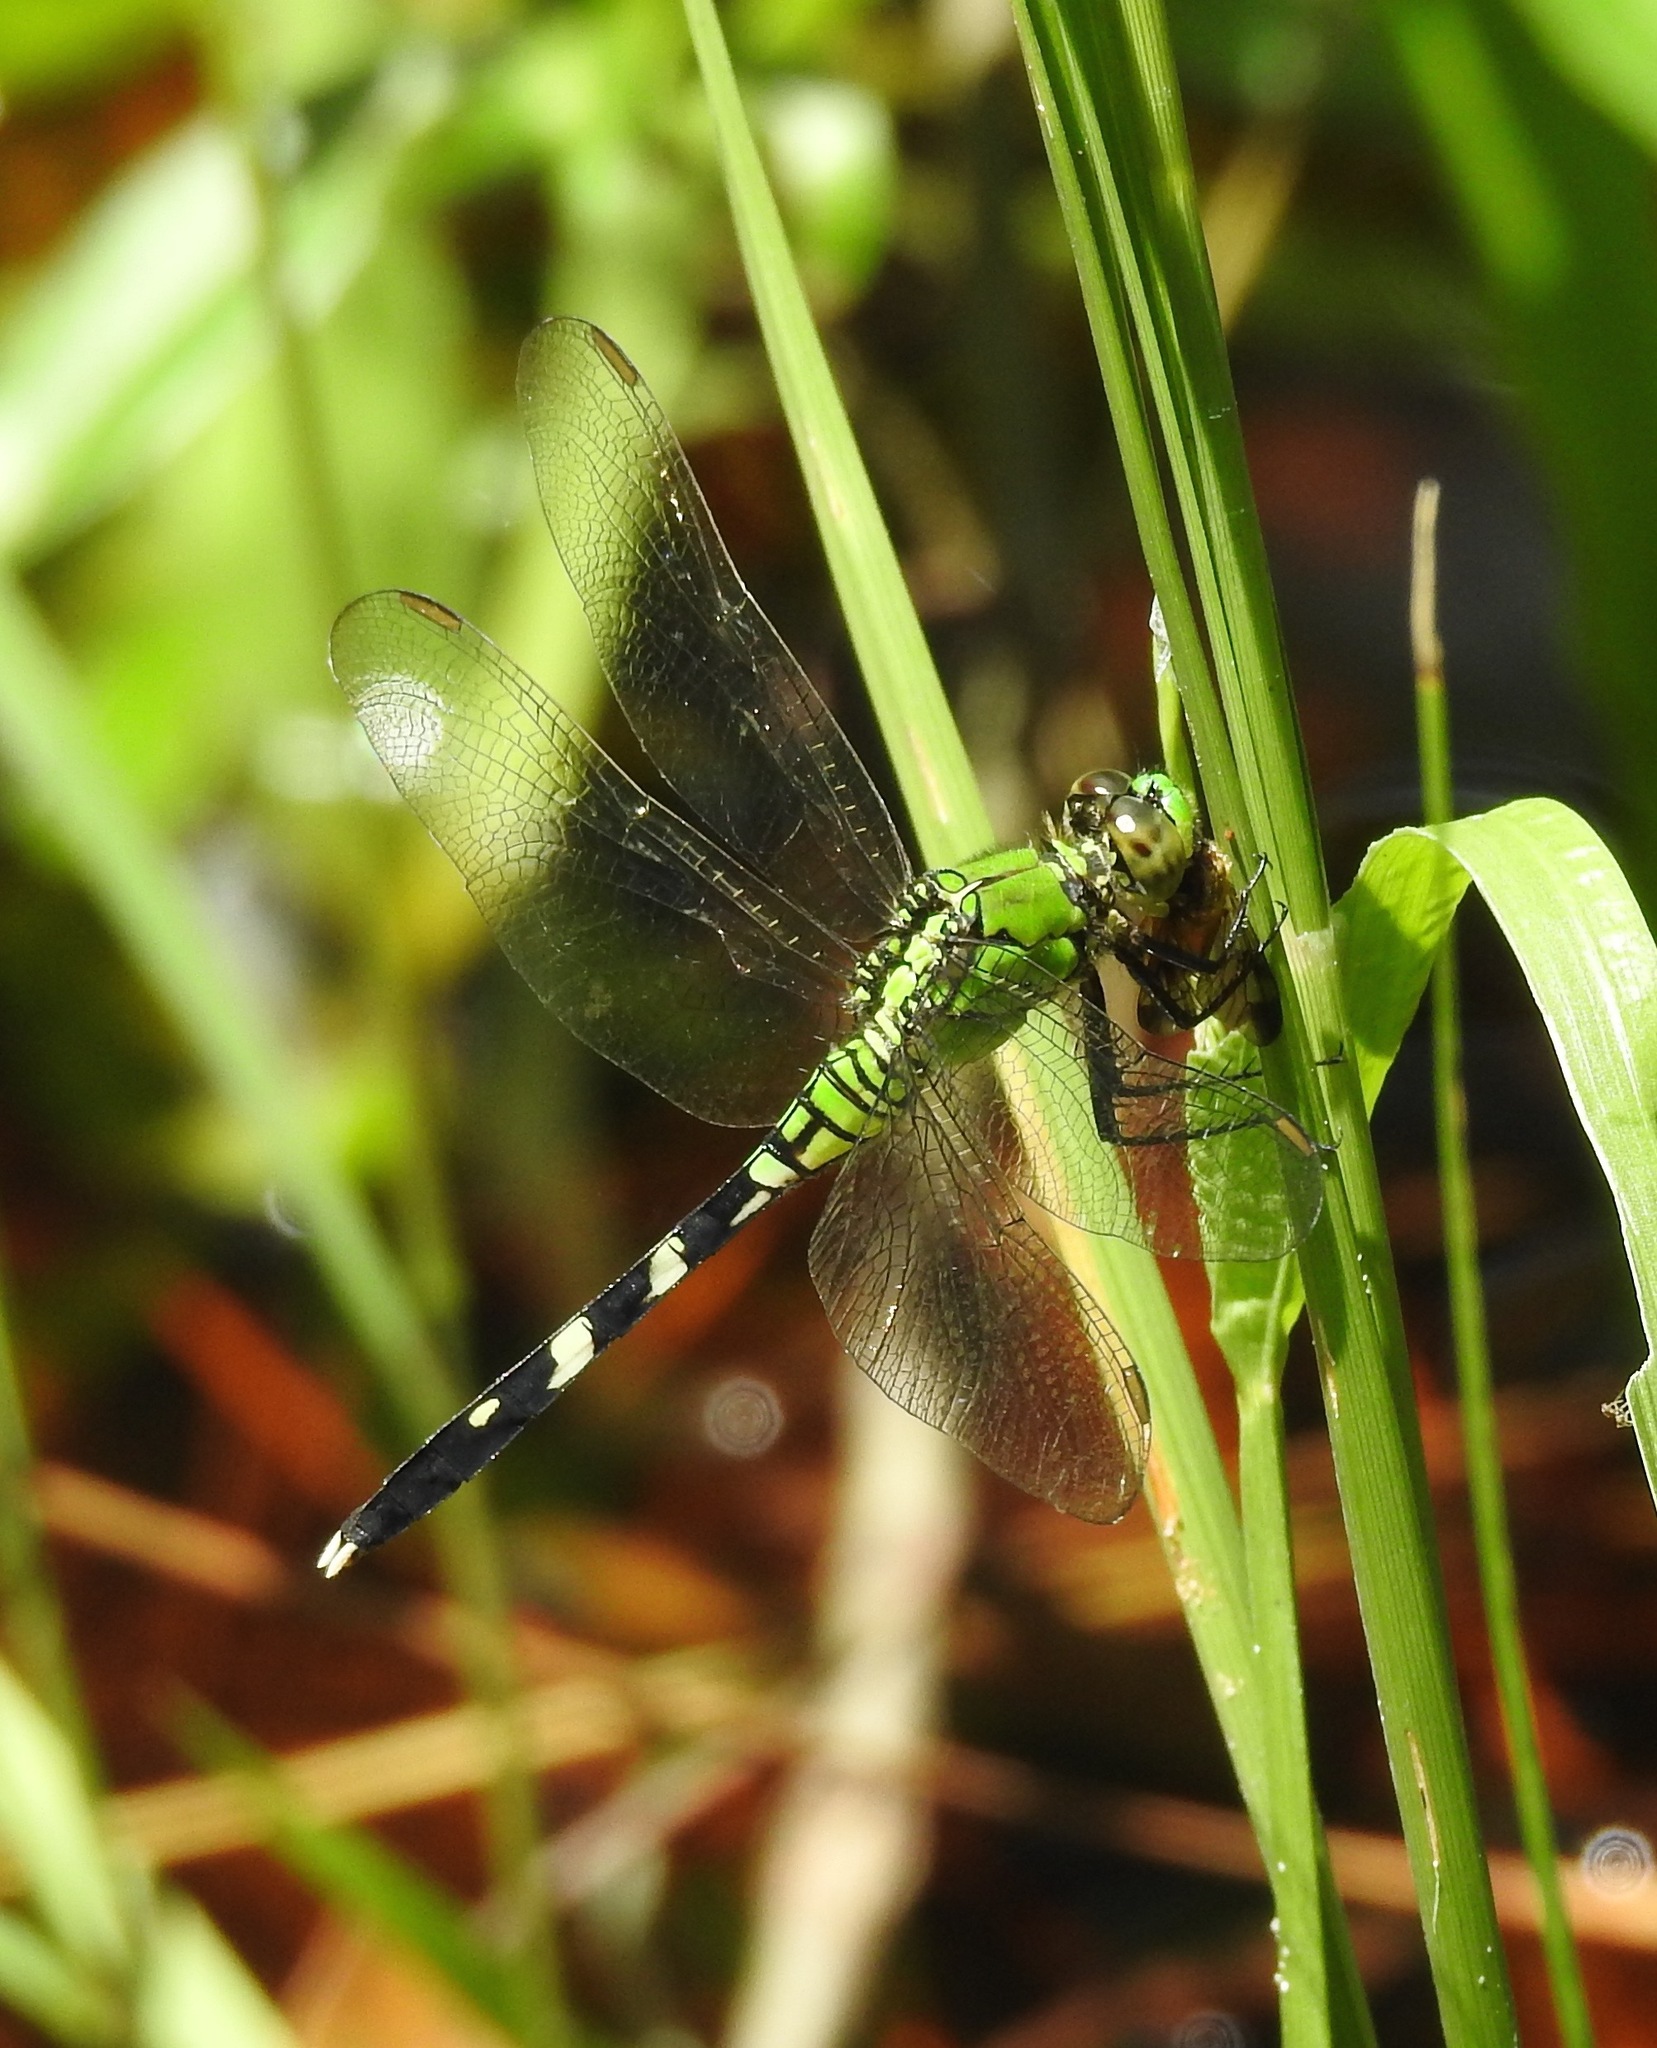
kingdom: Animalia
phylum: Arthropoda
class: Insecta
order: Odonata
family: Libellulidae
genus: Erythemis
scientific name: Erythemis simplicicollis
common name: Eastern pondhawk
